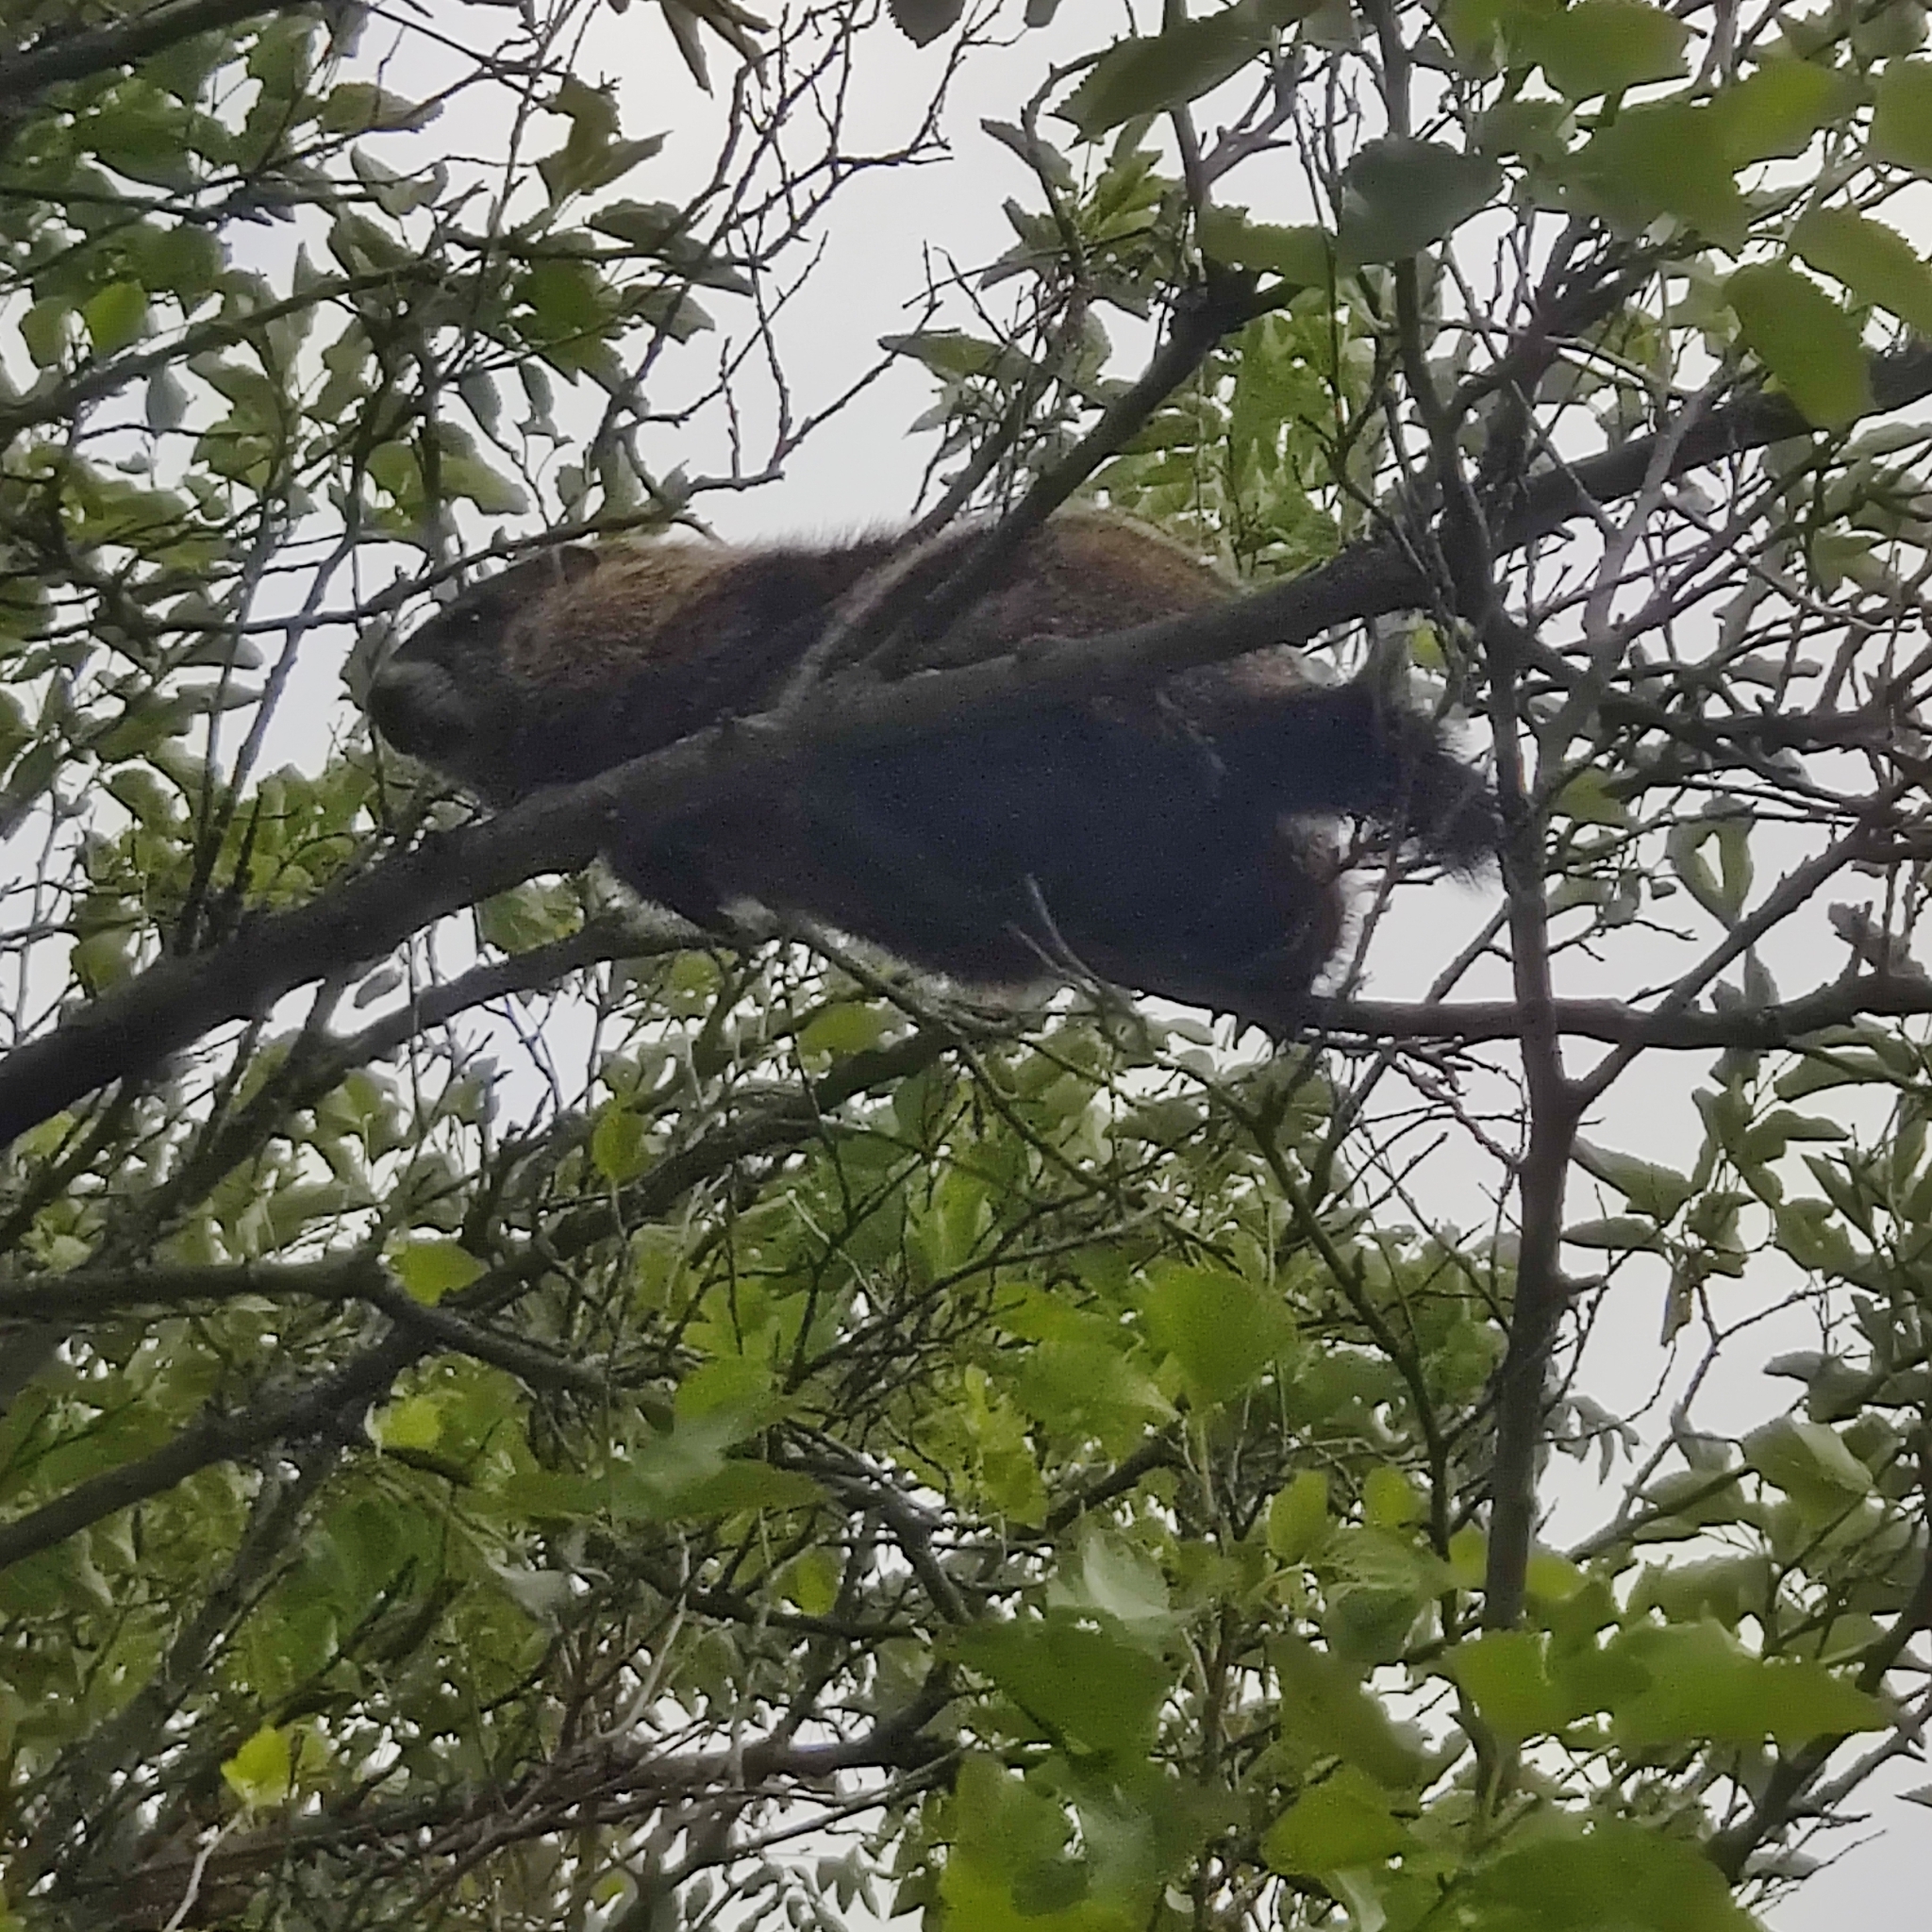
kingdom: Animalia
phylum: Chordata
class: Mammalia
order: Rodentia
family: Sciuridae
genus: Marmota
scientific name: Marmota monax
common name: Groundhog
